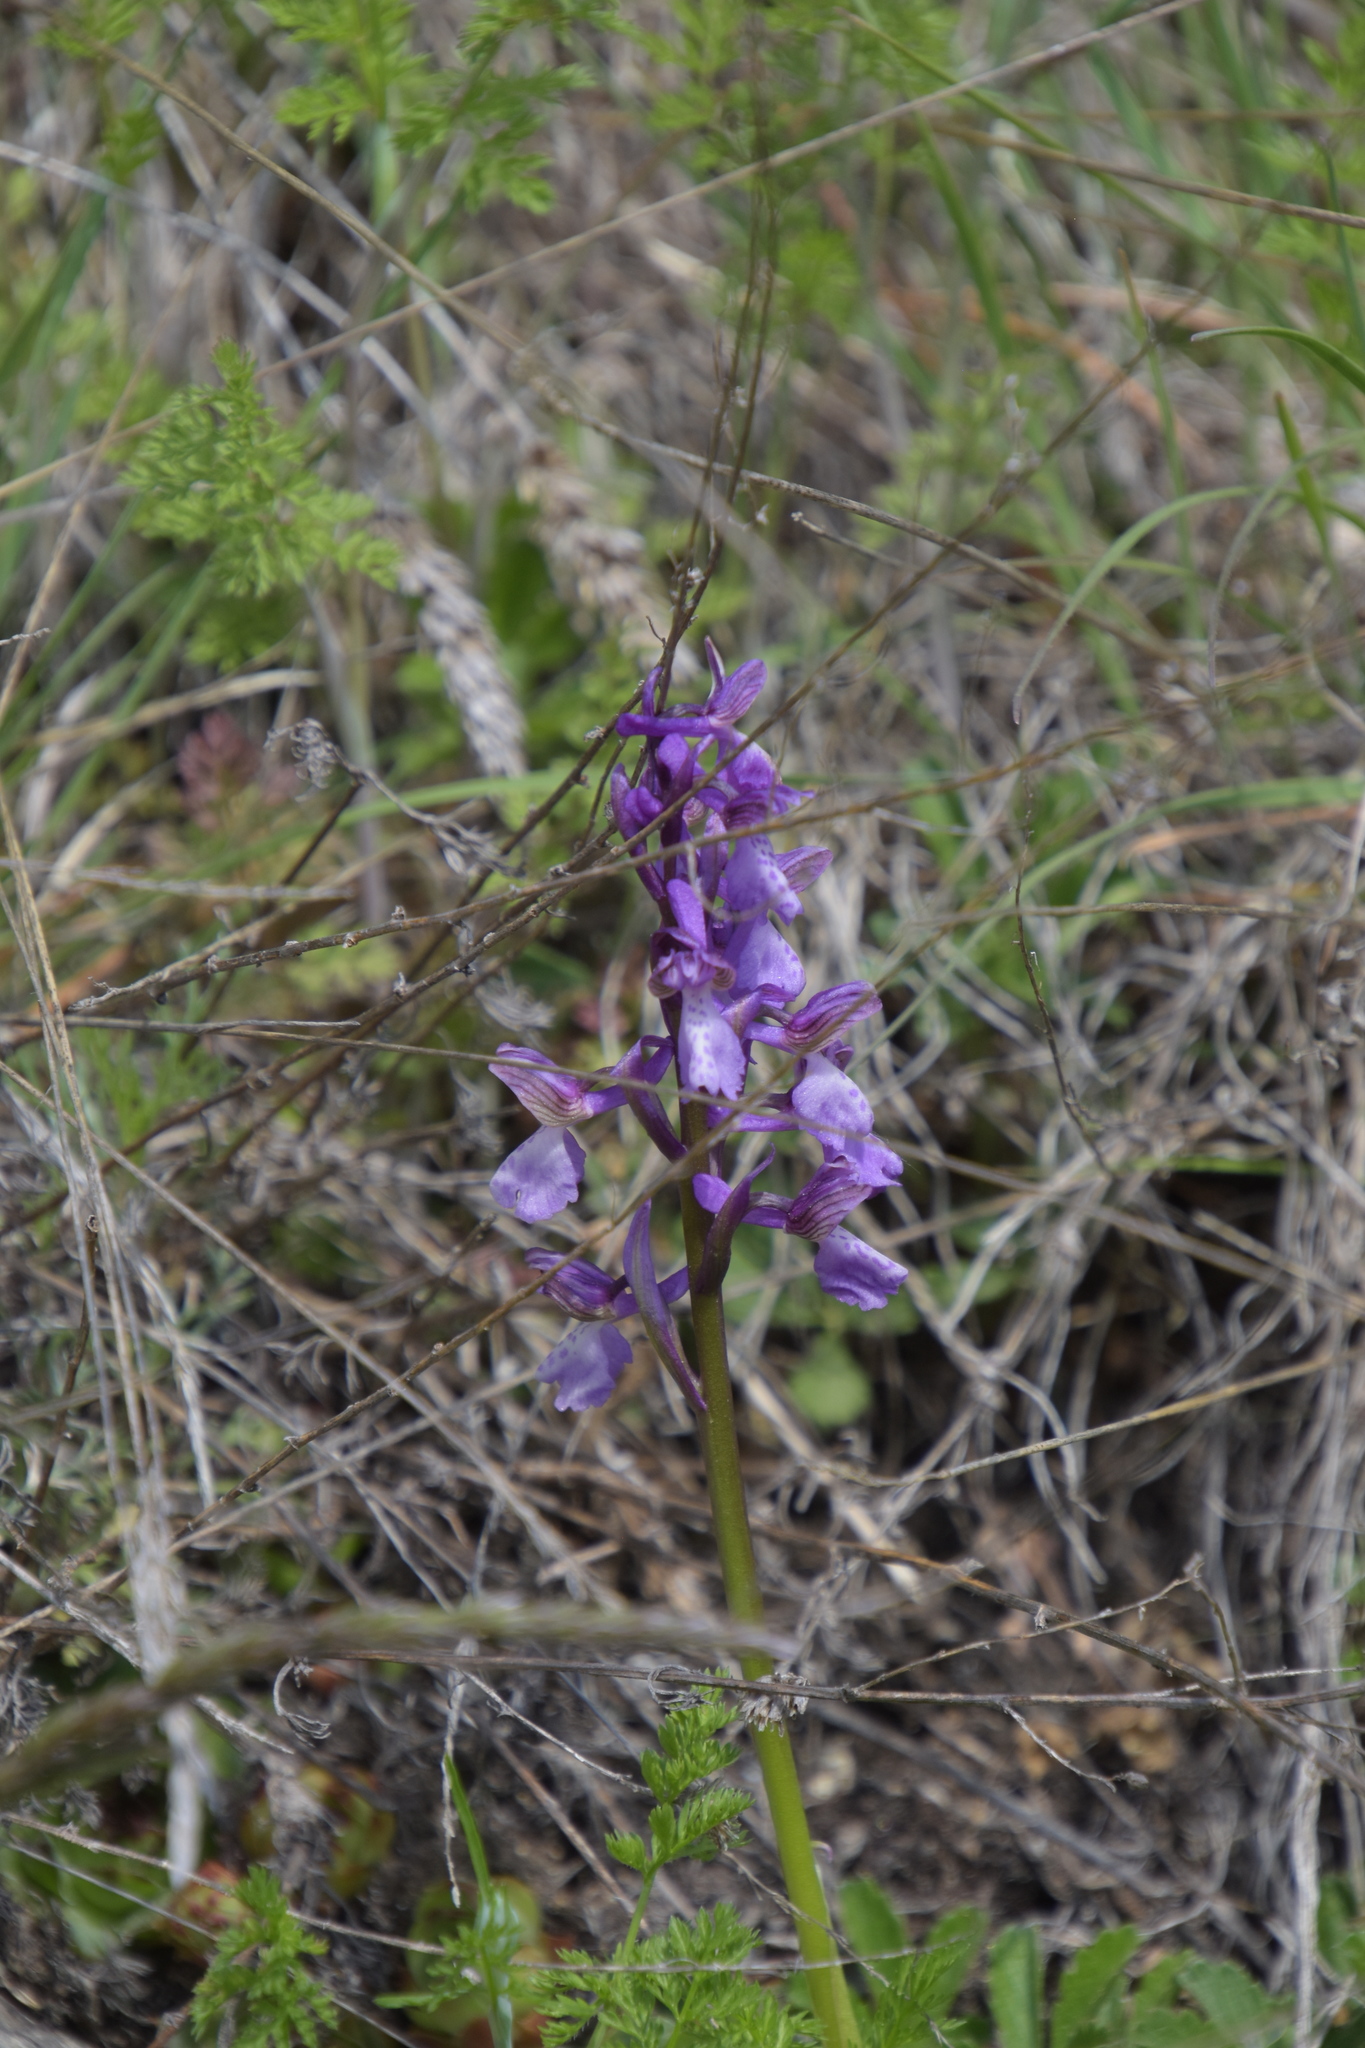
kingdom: Plantae
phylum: Tracheophyta
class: Liliopsida
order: Asparagales
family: Orchidaceae
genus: Anacamptis
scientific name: Anacamptis morio
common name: Green-winged orchid
